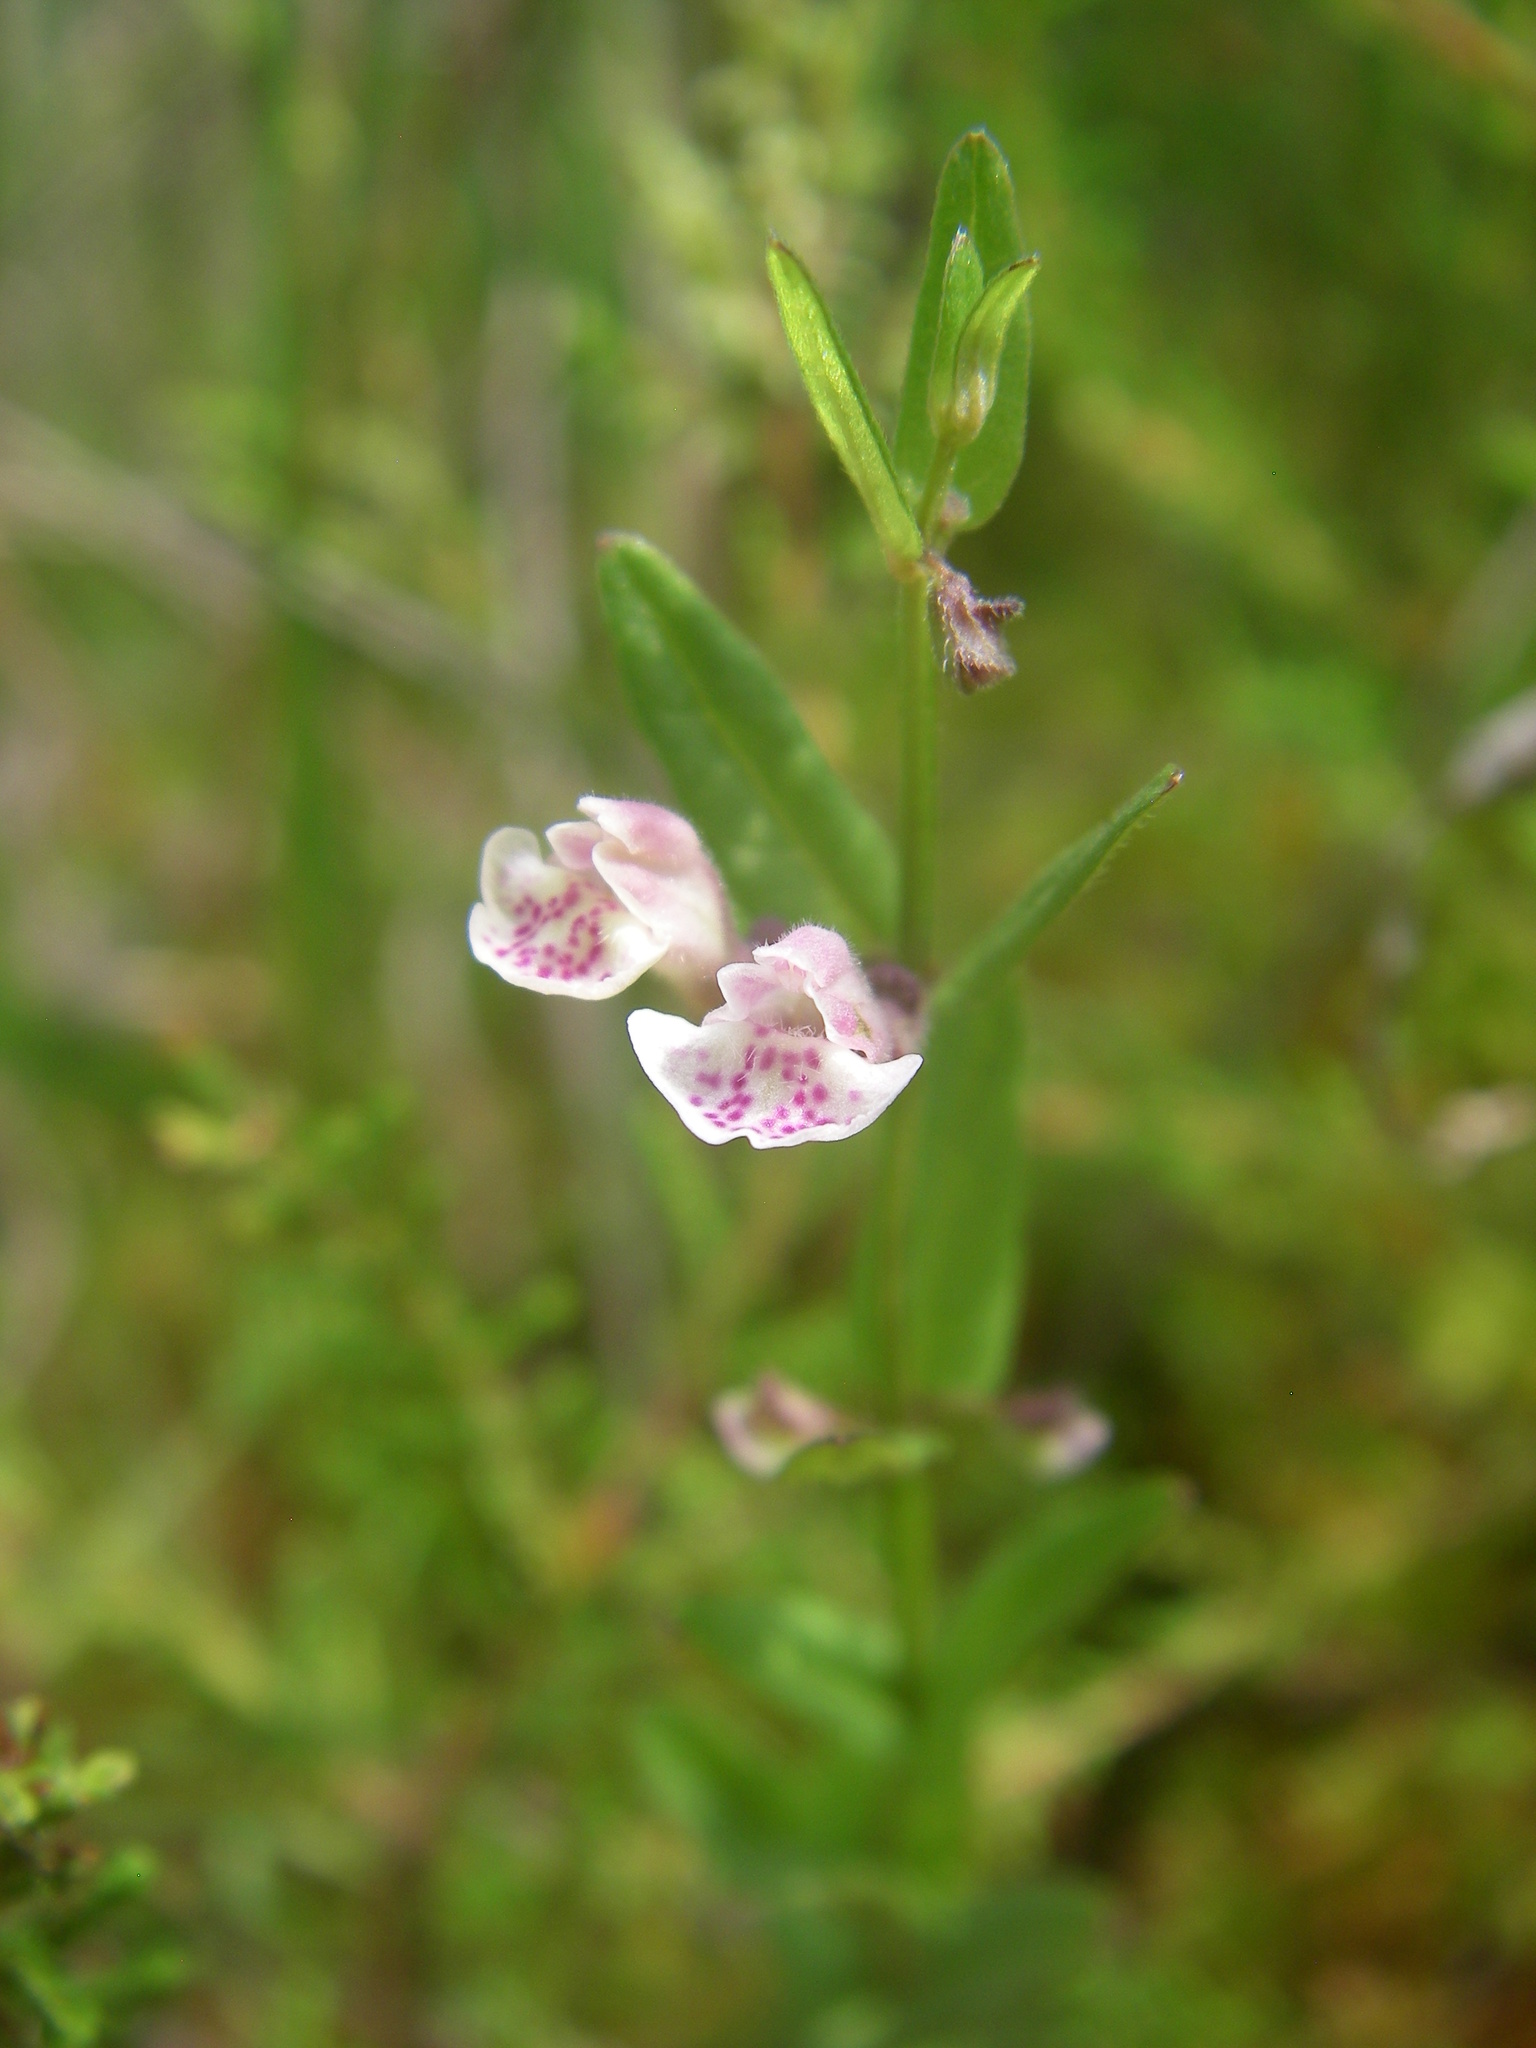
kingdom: Plantae
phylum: Tracheophyta
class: Magnoliopsida
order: Lamiales
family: Lamiaceae
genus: Scutellaria
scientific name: Scutellaria minor
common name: Lesser skullcap
